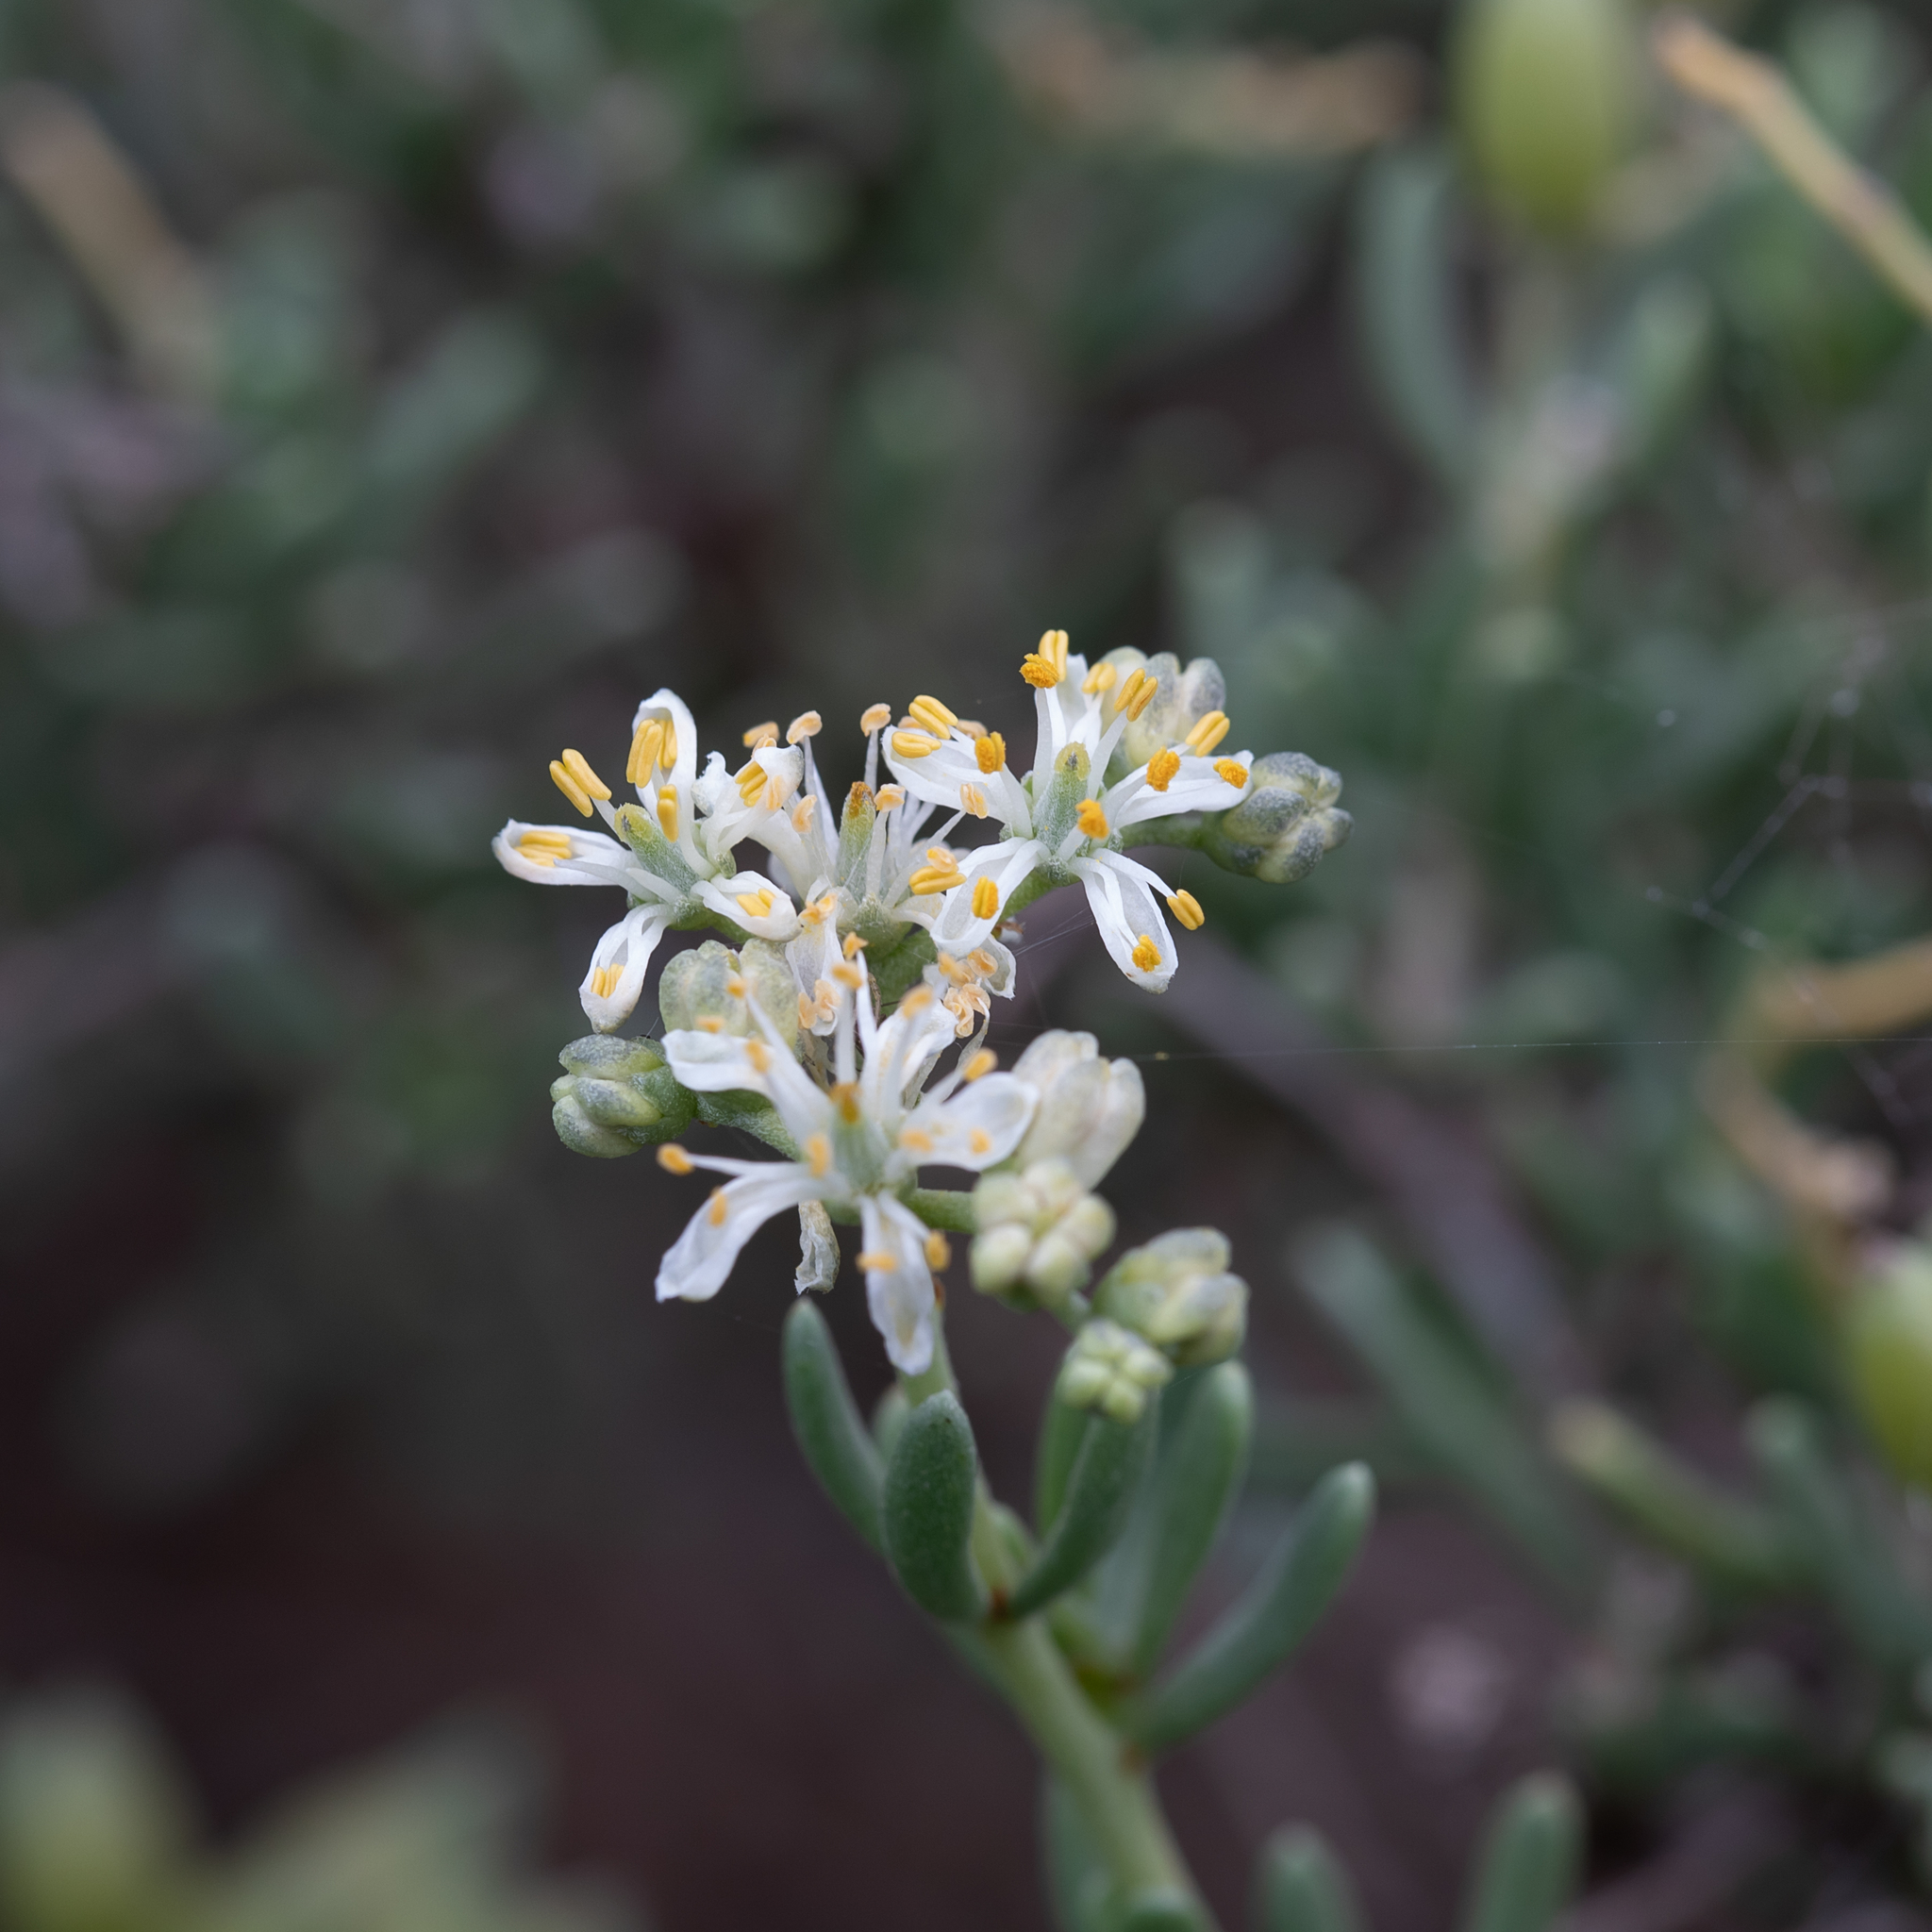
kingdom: Plantae
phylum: Tracheophyta
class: Magnoliopsida
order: Sapindales
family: Nitrariaceae
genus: Nitraria
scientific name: Nitraria billardierei
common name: Dillonbush
